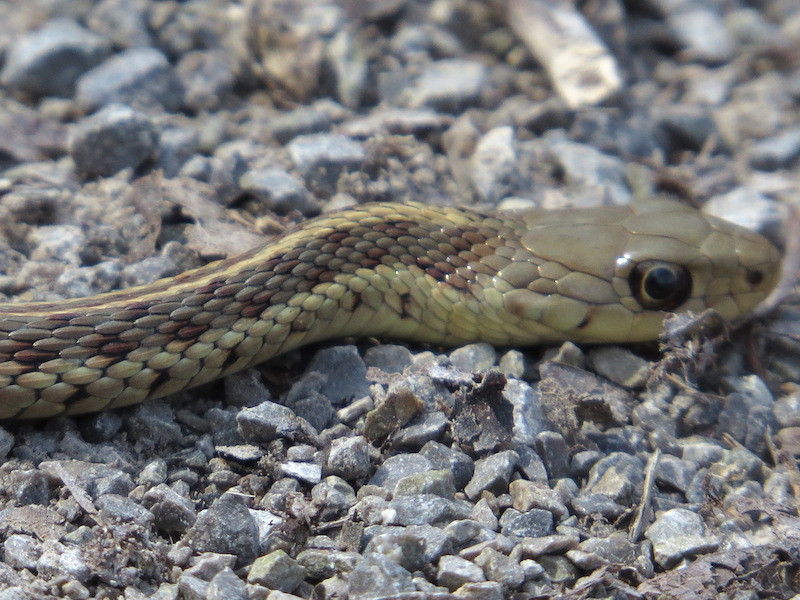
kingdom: Animalia
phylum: Chordata
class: Squamata
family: Colubridae
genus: Thamnophis
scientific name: Thamnophis sirtalis
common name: Common garter snake
